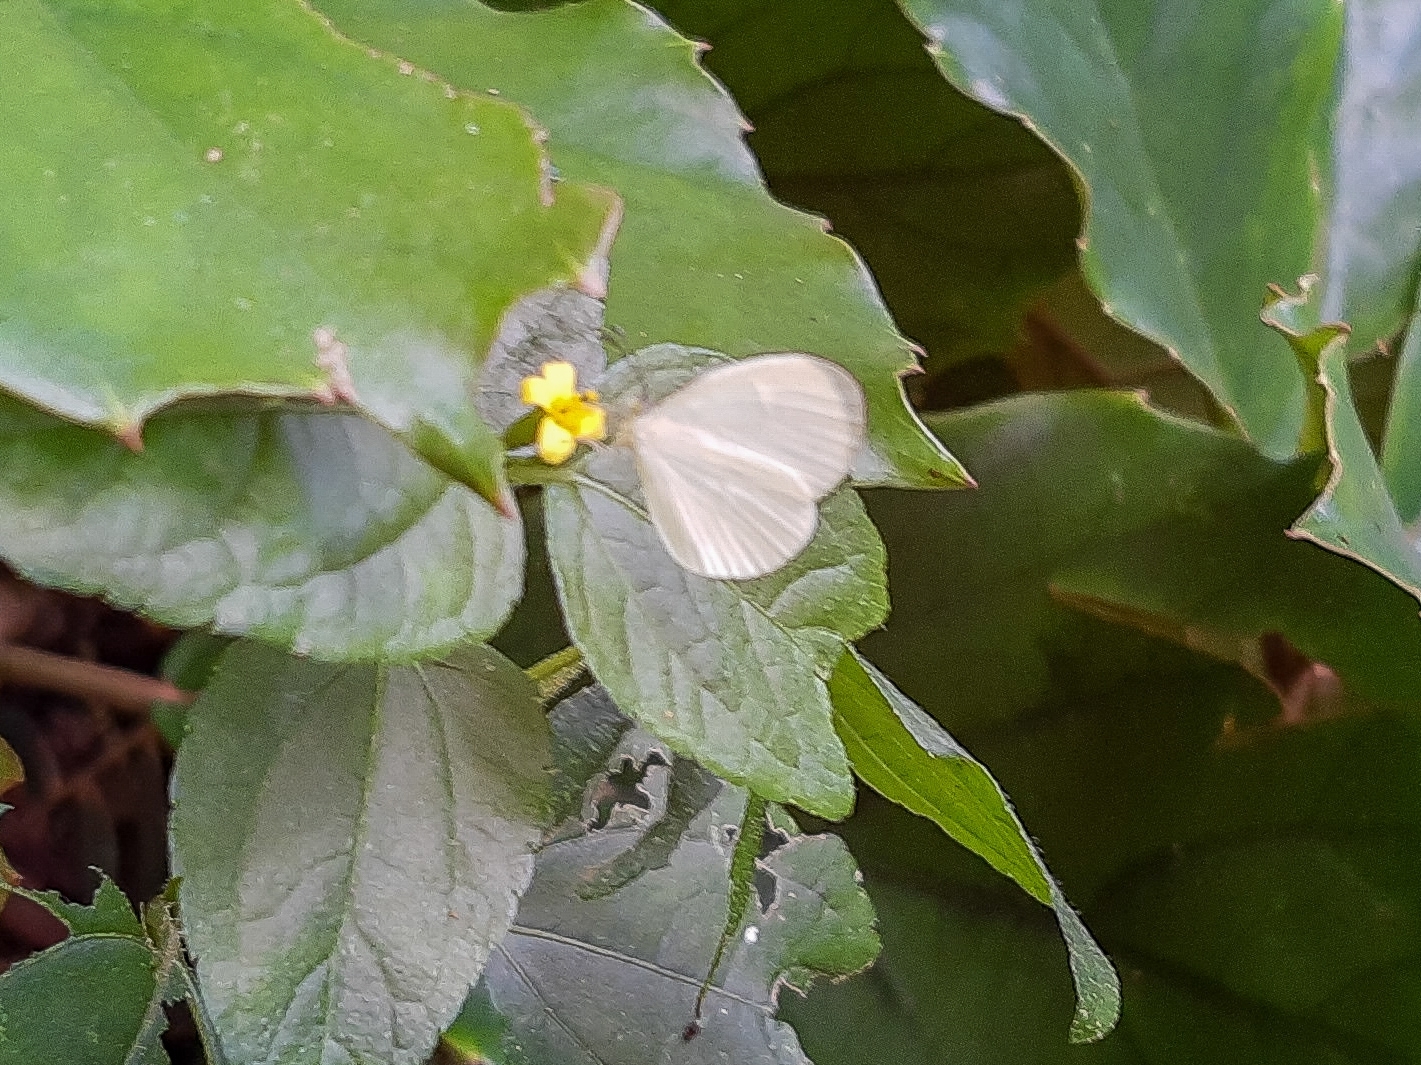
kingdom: Animalia
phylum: Arthropoda
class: Insecta
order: Lepidoptera
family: Pieridae
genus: Leucidia
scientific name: Leucidia elvina
